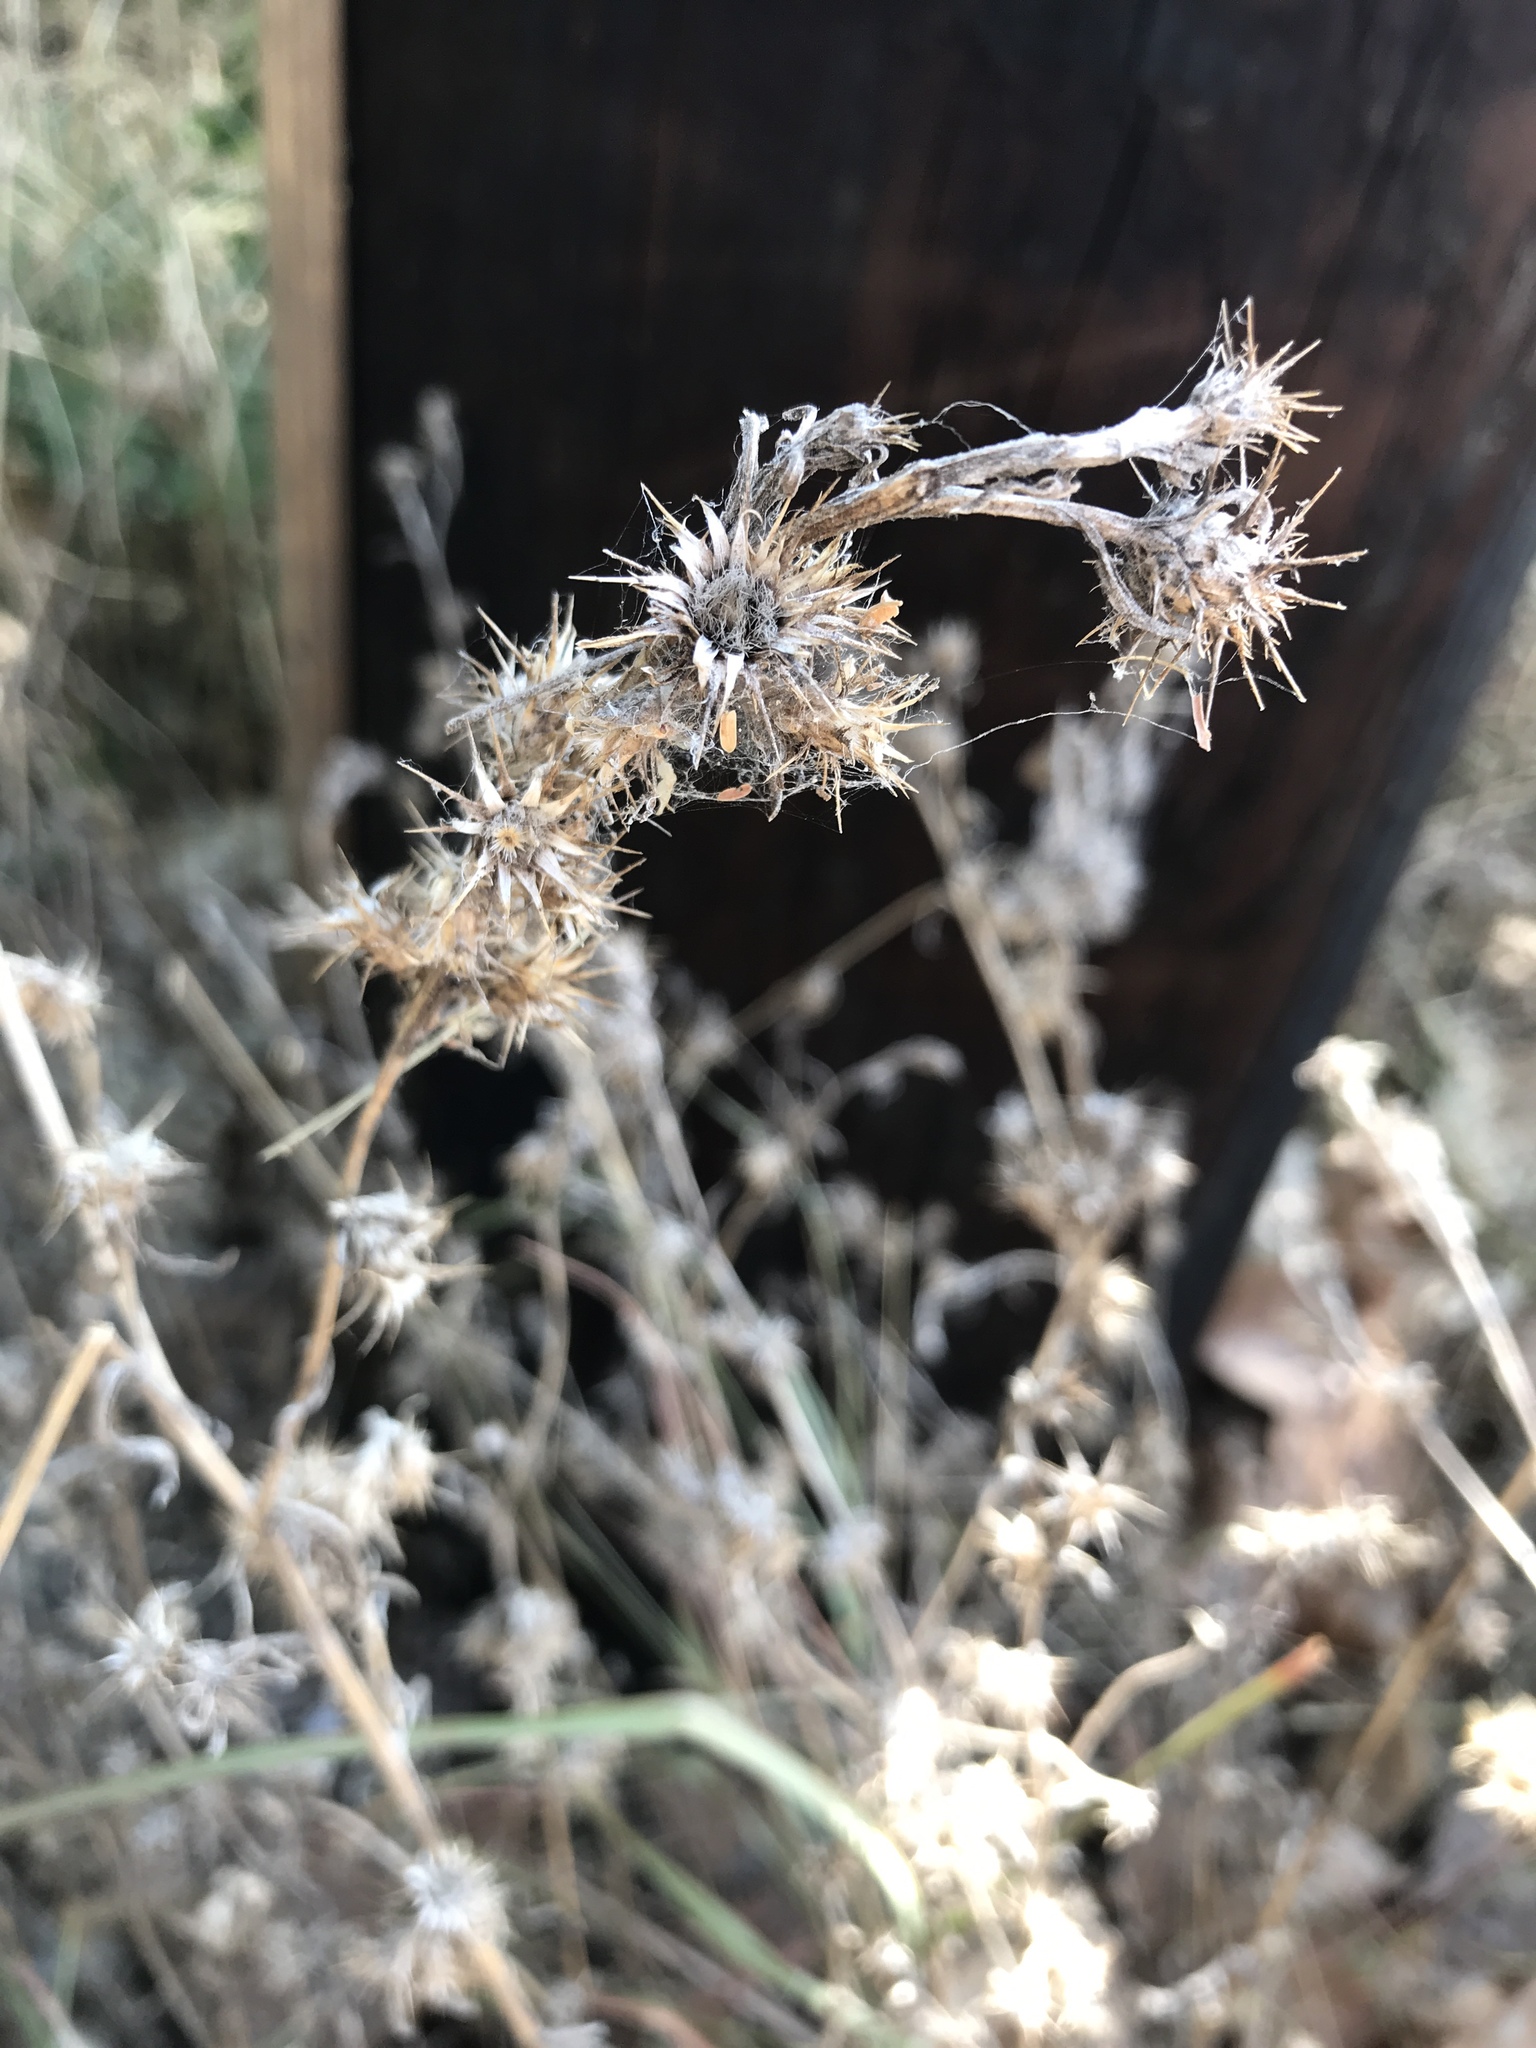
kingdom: Plantae
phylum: Tracheophyta
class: Magnoliopsida
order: Asterales
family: Asteraceae
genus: Centaurea
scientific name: Centaurea melitensis
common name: Maltese star-thistle
